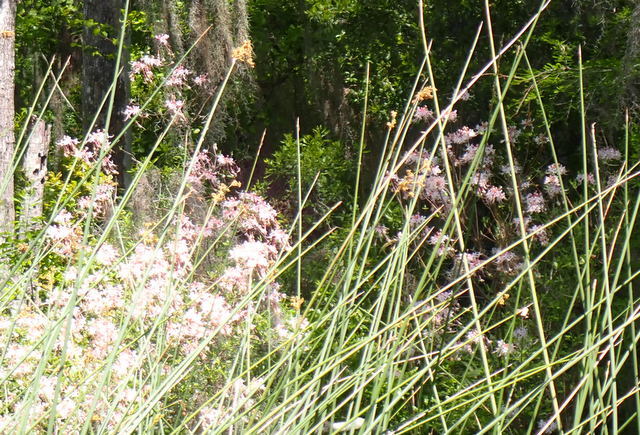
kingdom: Plantae
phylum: Tracheophyta
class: Magnoliopsida
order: Ericales
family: Ericaceae
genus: Rhododendron
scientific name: Rhododendron canescens
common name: Mountain azalea
